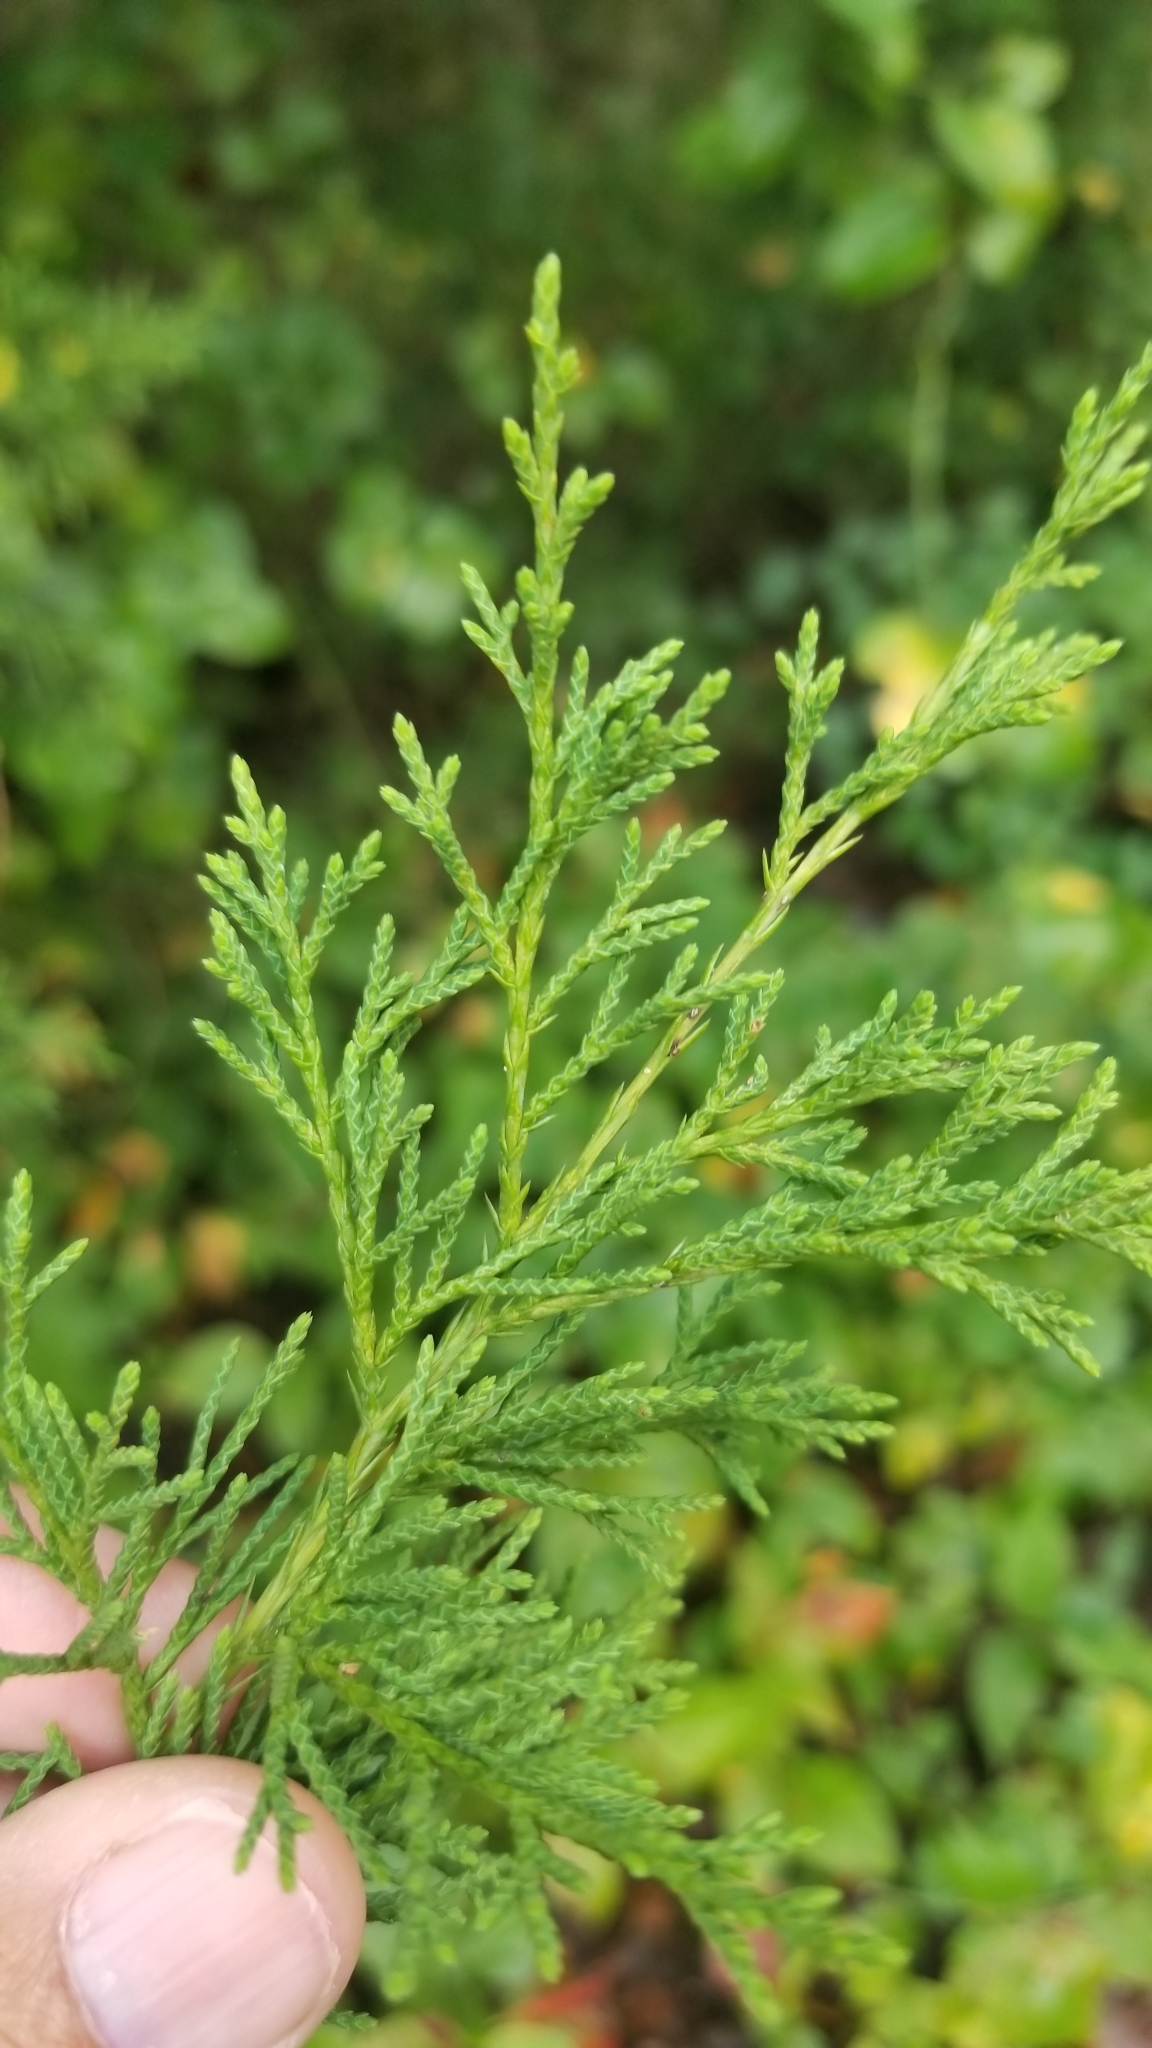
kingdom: Plantae
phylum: Tracheophyta
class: Pinopsida
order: Pinales
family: Cupressaceae
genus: Juniperus
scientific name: Juniperus virginiana
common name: Red juniper
